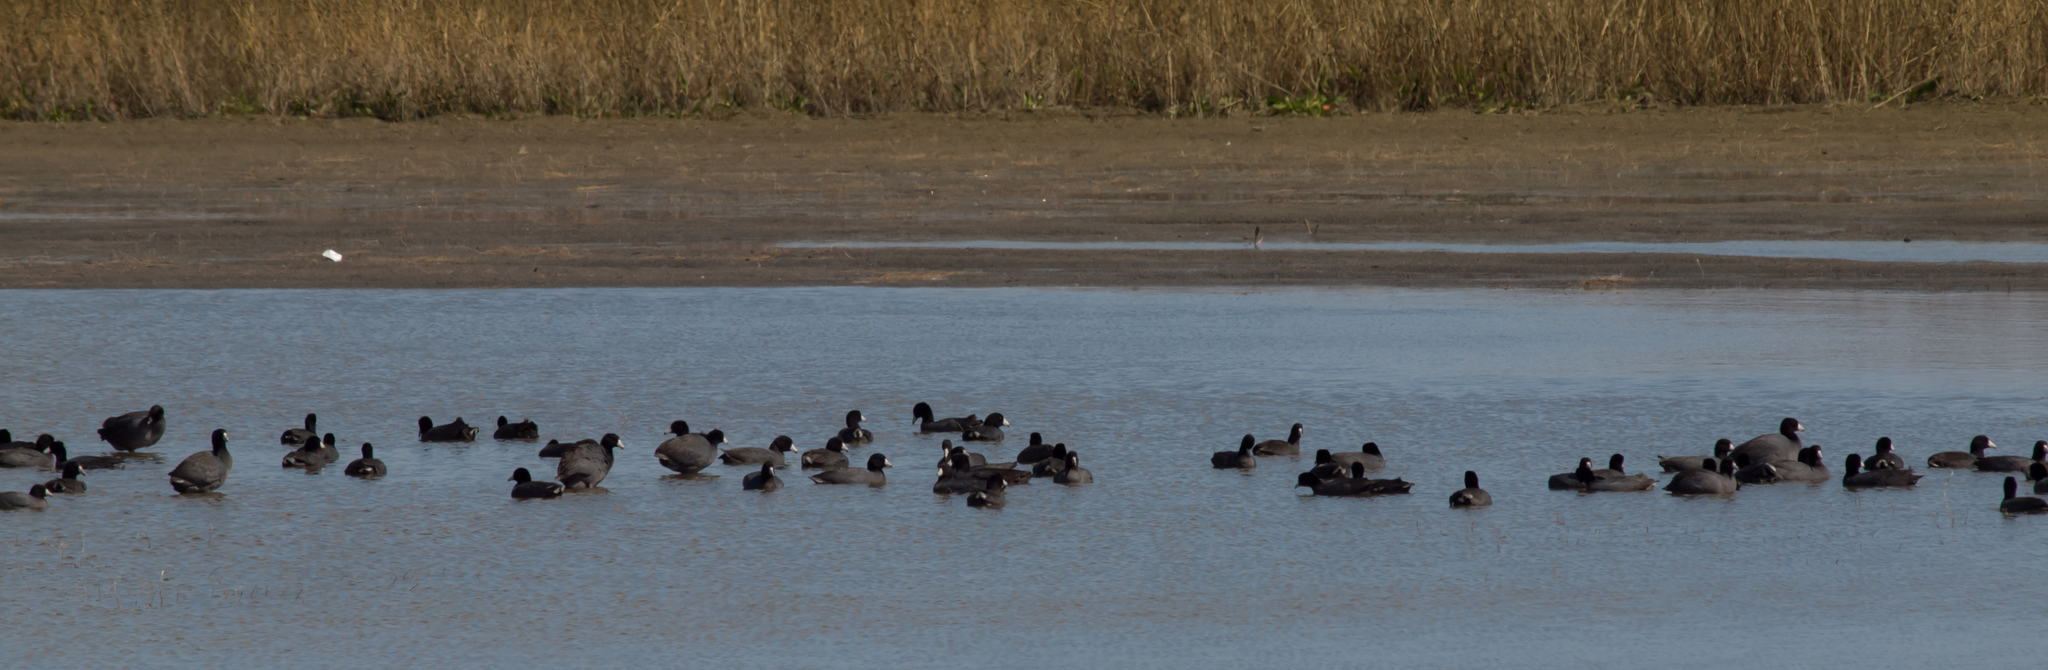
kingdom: Animalia
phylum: Chordata
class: Aves
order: Gruiformes
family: Rallidae
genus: Fulica
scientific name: Fulica americana
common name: American coot
